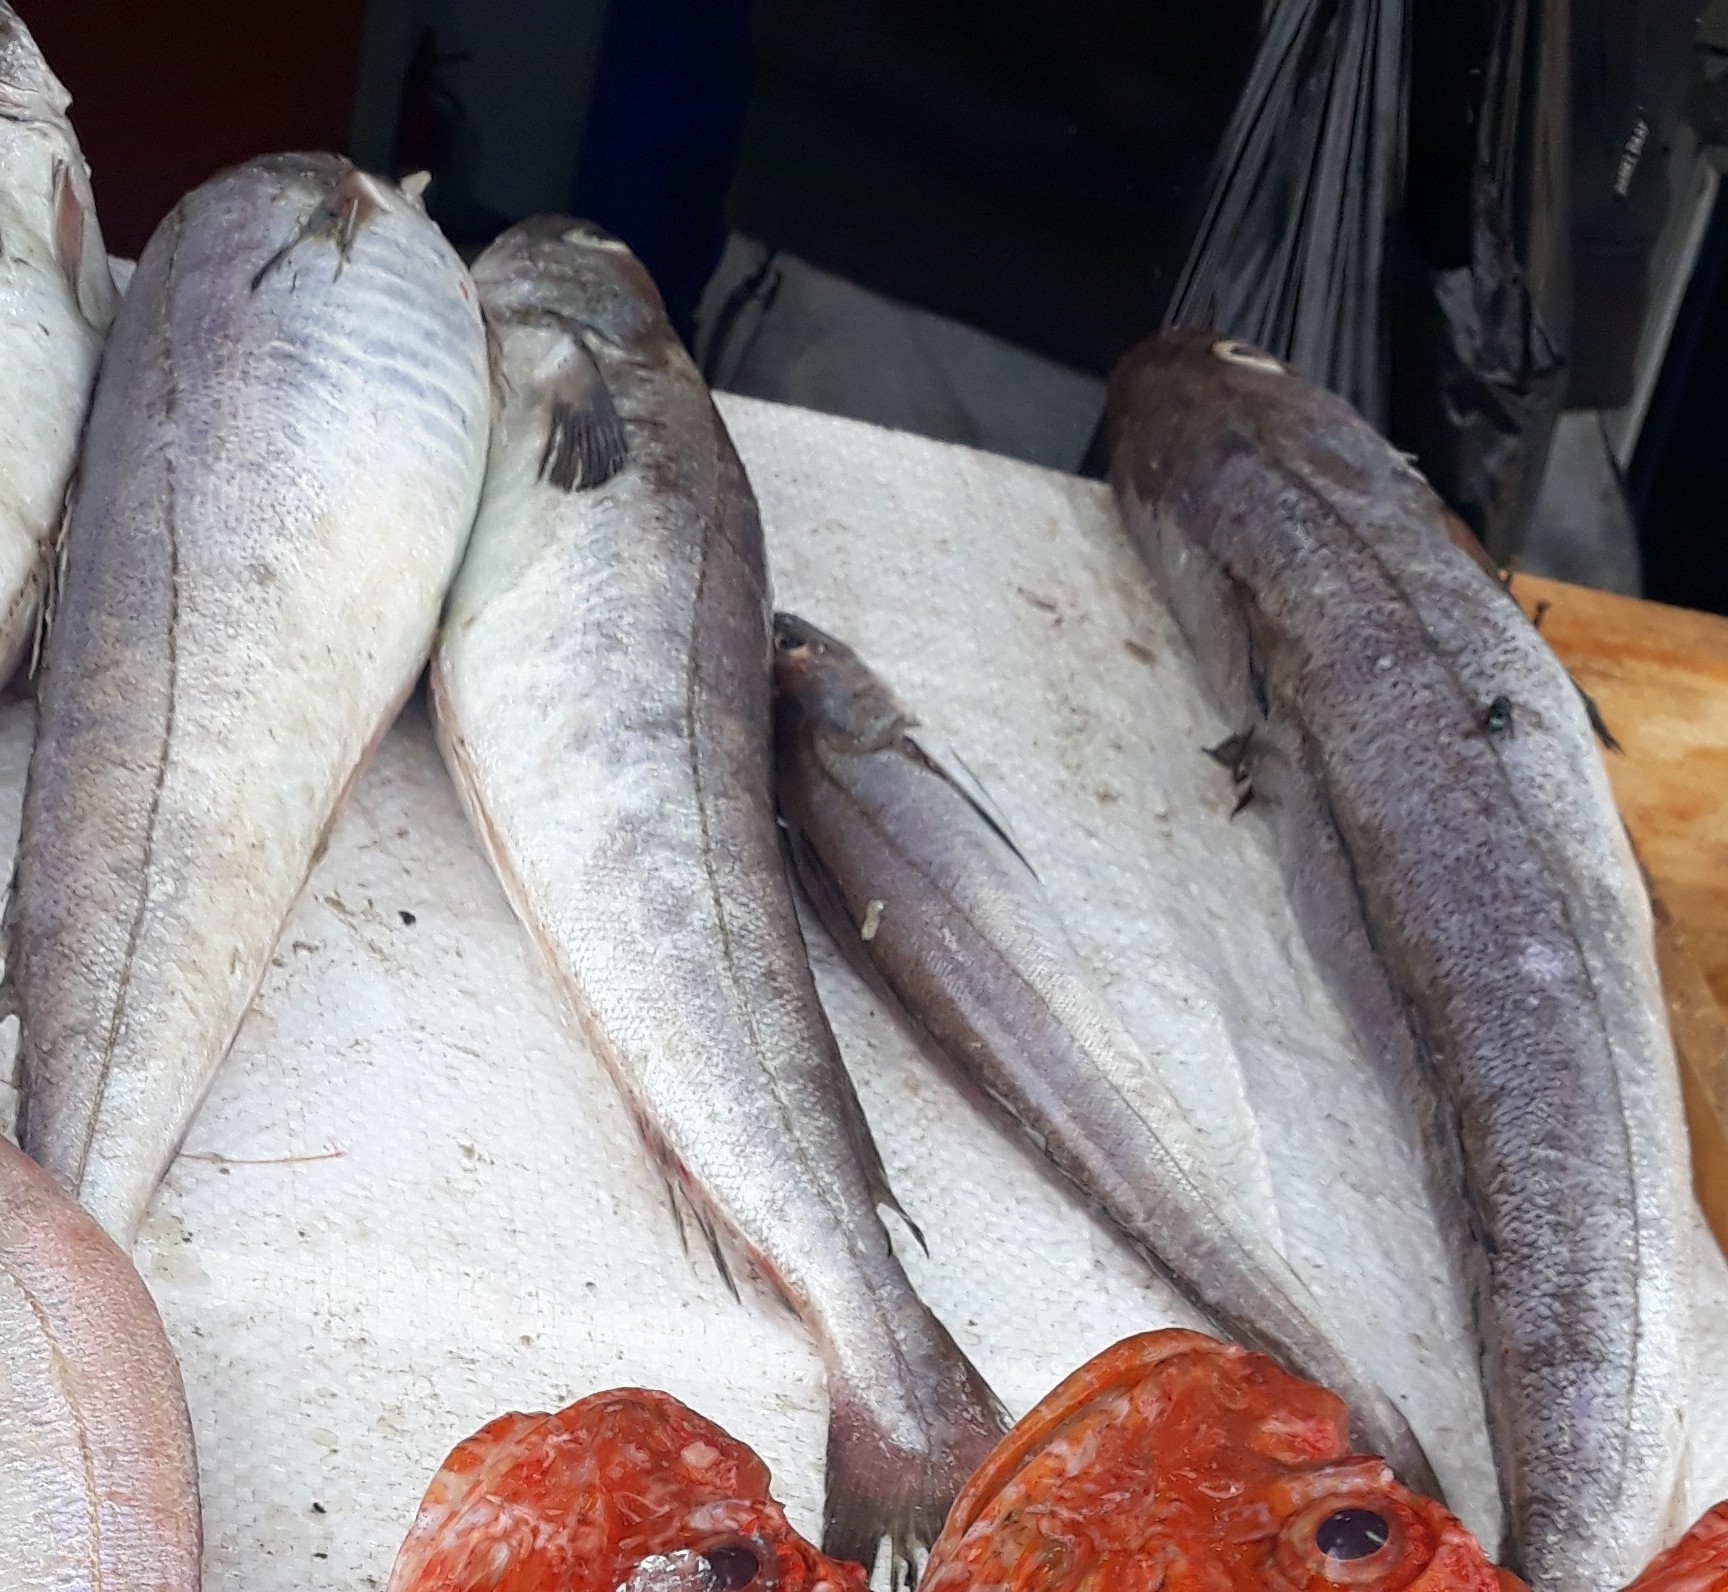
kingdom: Animalia
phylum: Chordata
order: Gadiformes
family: Merlucciidae
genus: Merluccius
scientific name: Merluccius merluccius
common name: European hake
